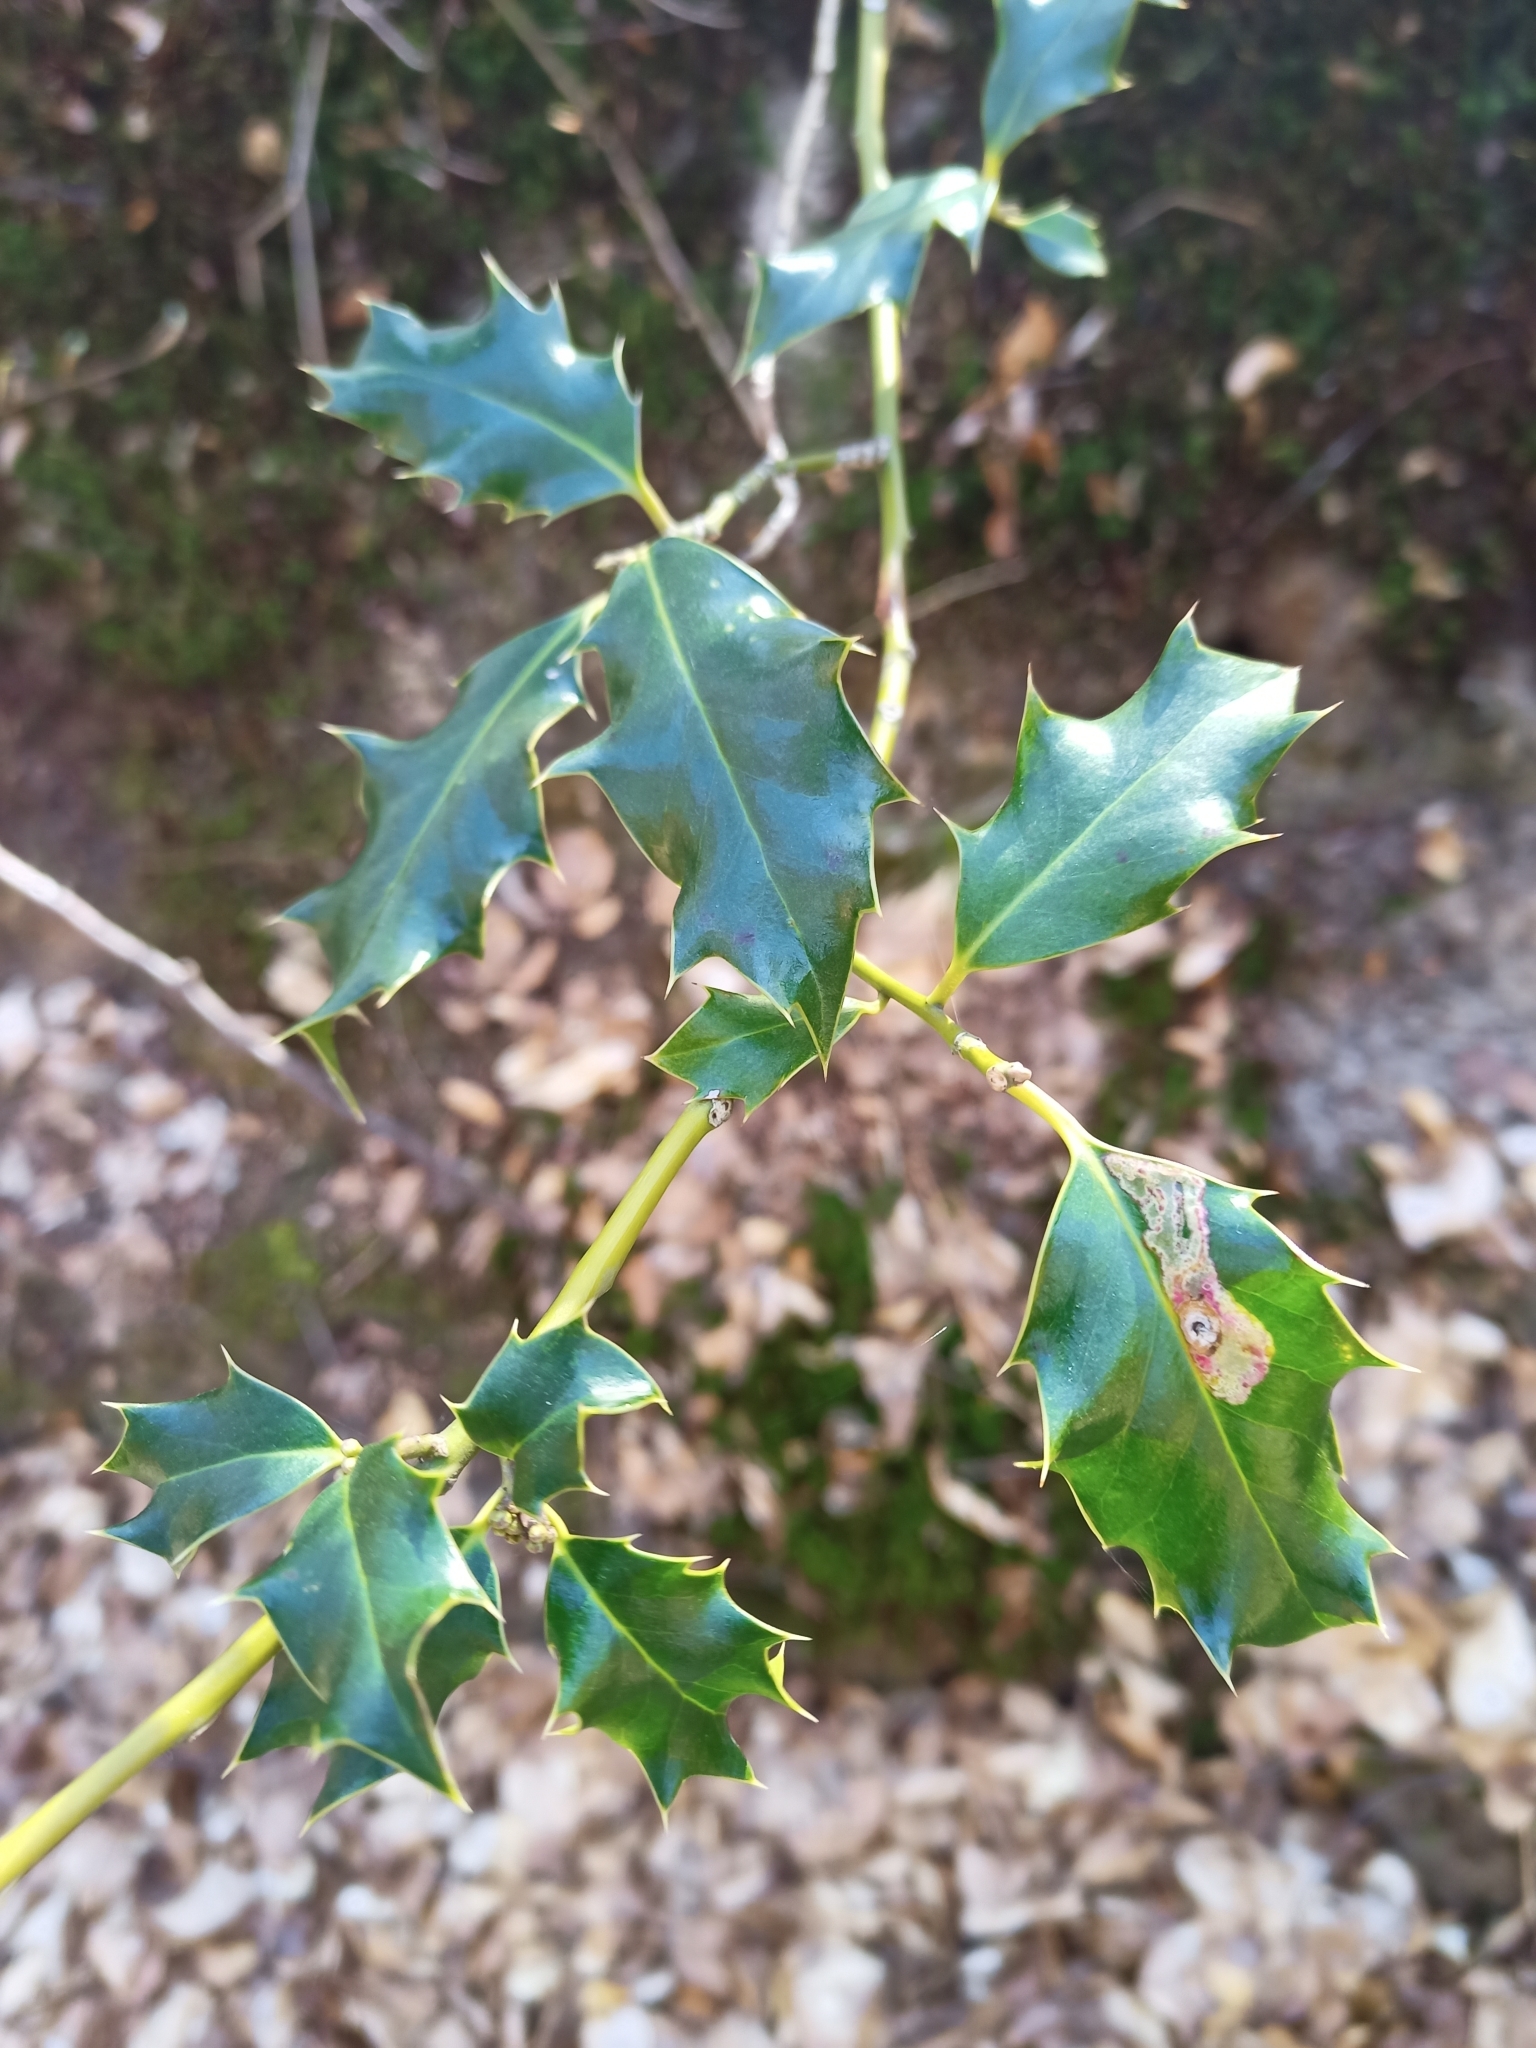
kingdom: Plantae
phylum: Tracheophyta
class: Magnoliopsida
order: Aquifoliales
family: Aquifoliaceae
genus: Ilex
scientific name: Ilex aquifolium
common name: English holly
